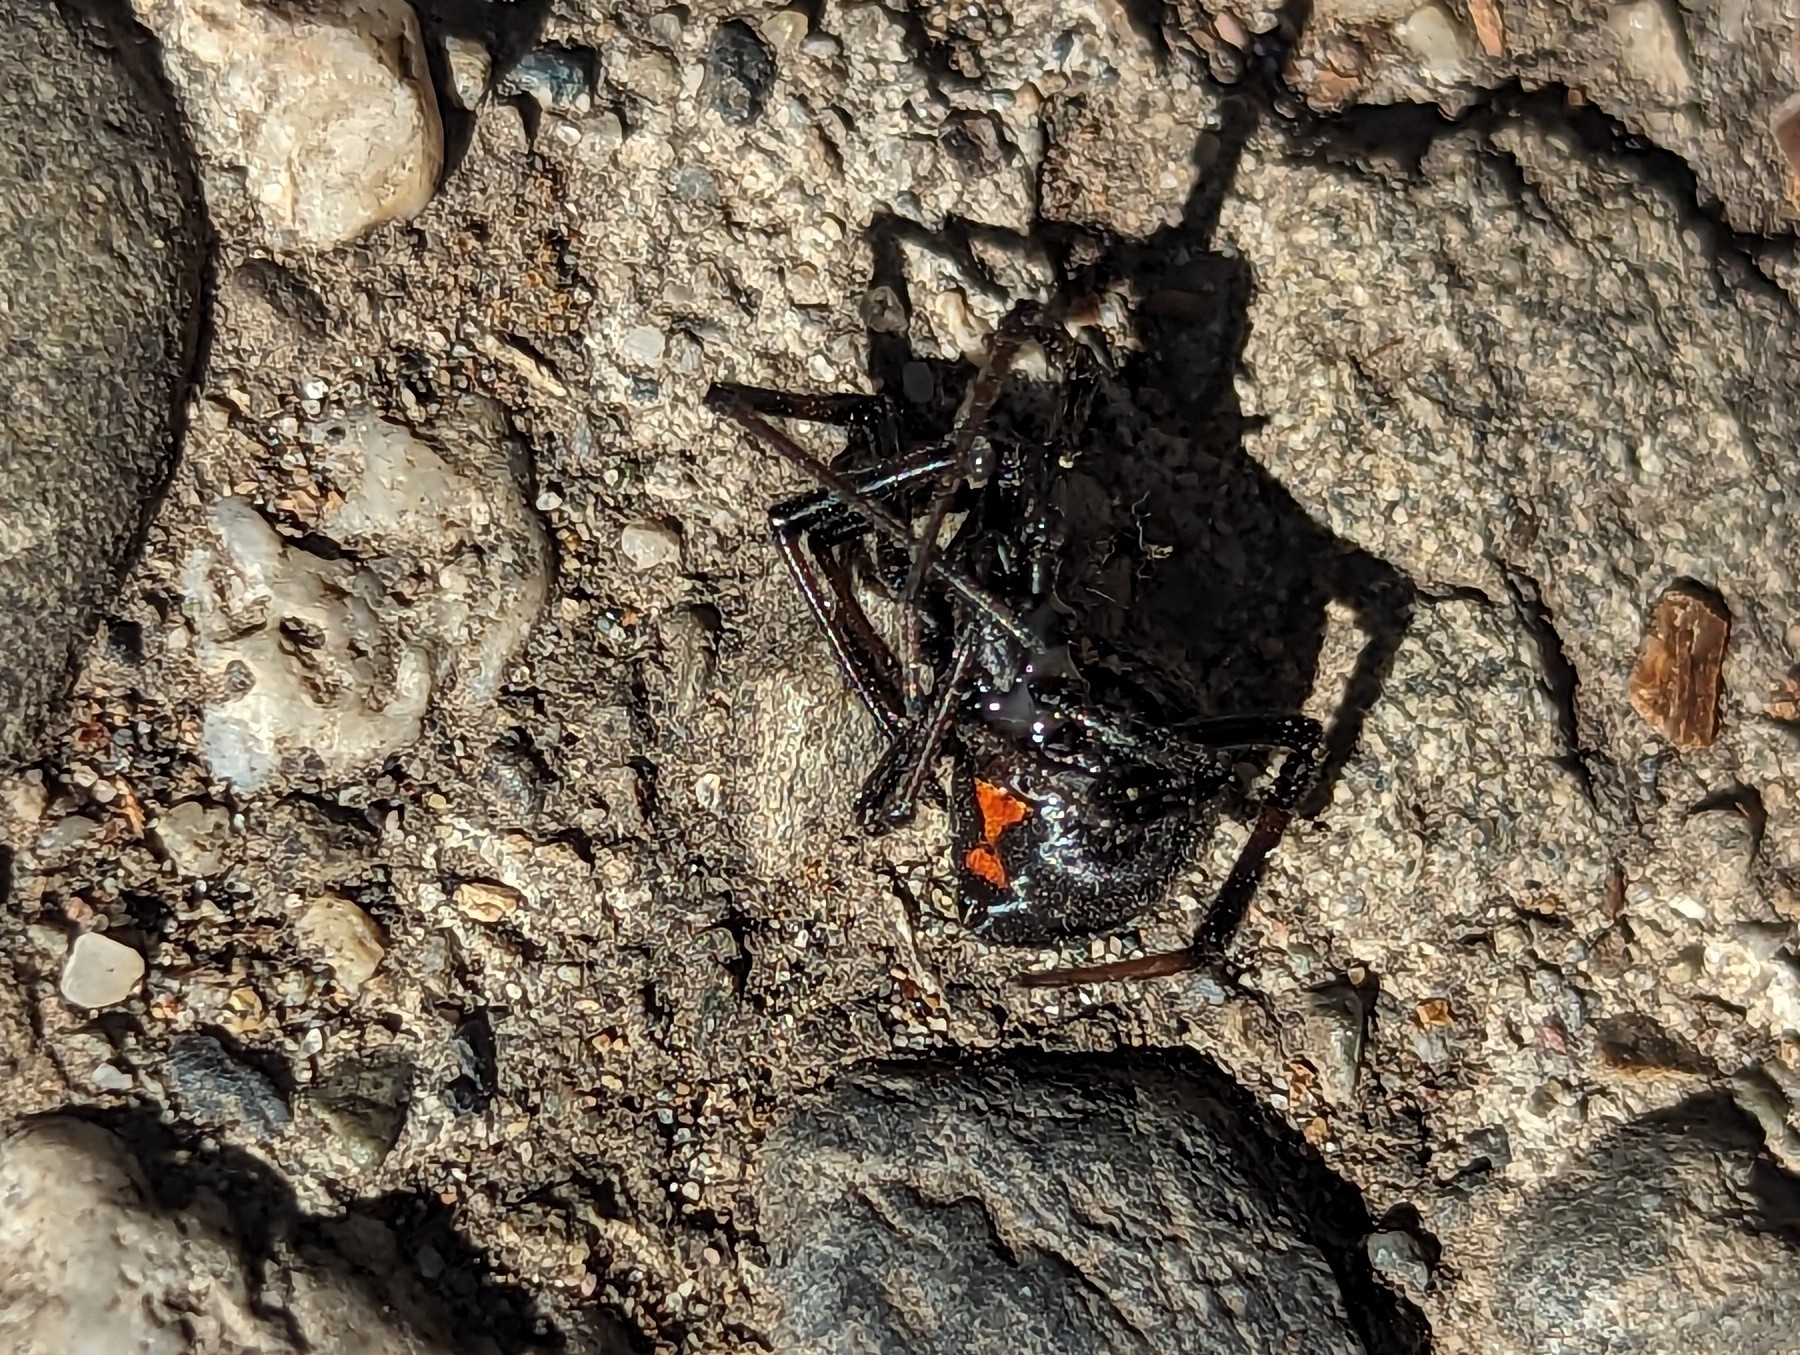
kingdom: Animalia
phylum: Arthropoda
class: Arachnida
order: Araneae
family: Theridiidae
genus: Latrodectus
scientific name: Latrodectus hesperus
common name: Western black widow
